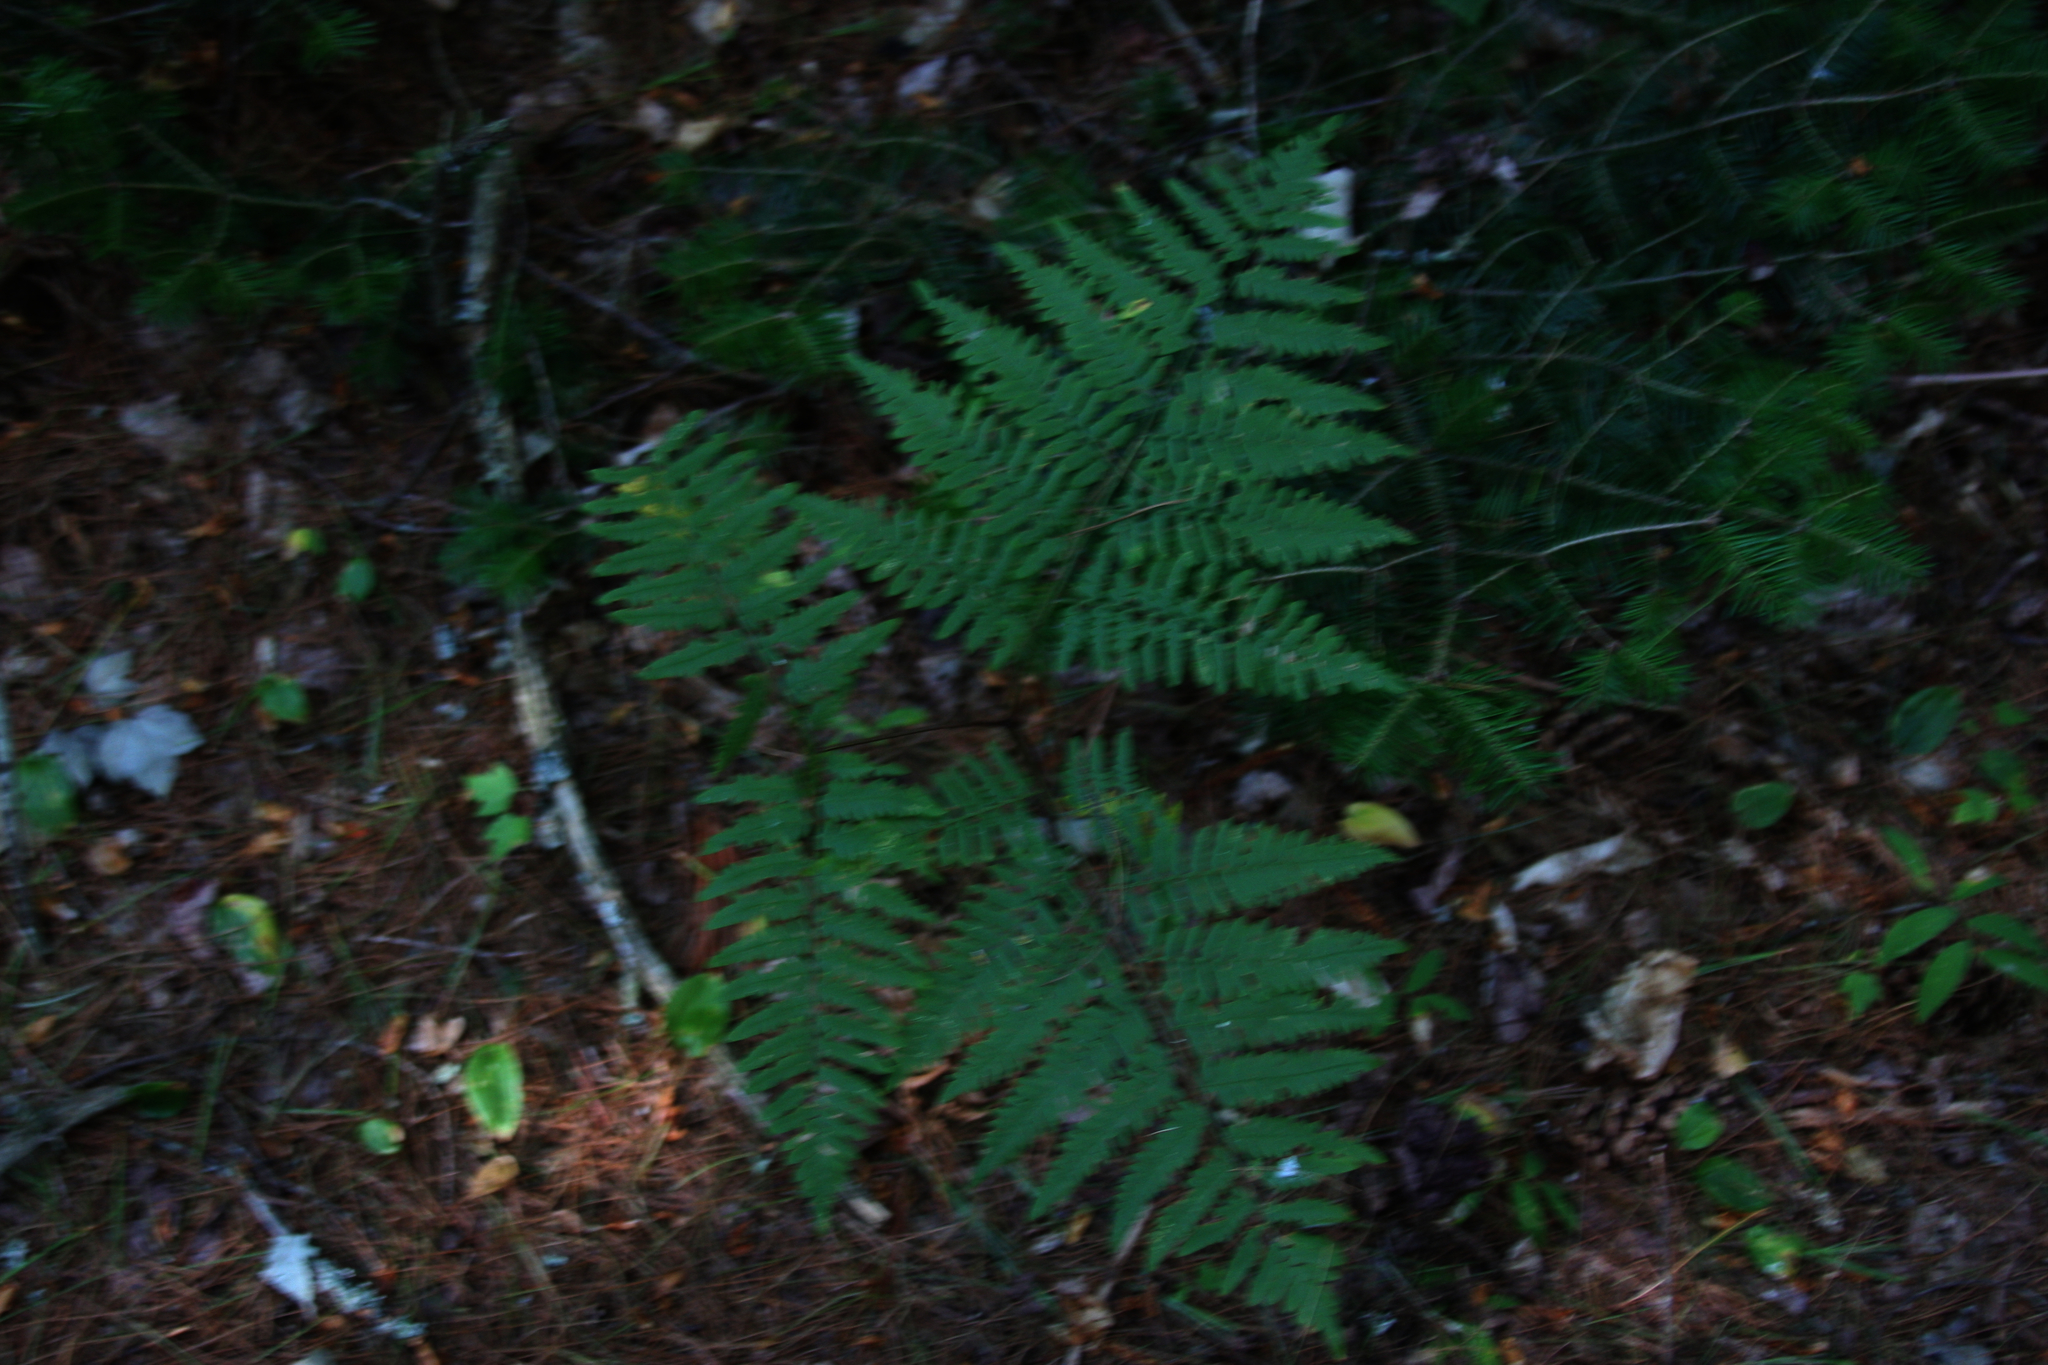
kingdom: Plantae
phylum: Tracheophyta
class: Polypodiopsida
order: Polypodiales
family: Dennstaedtiaceae
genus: Pteridium
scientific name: Pteridium aquilinum
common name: Bracken
